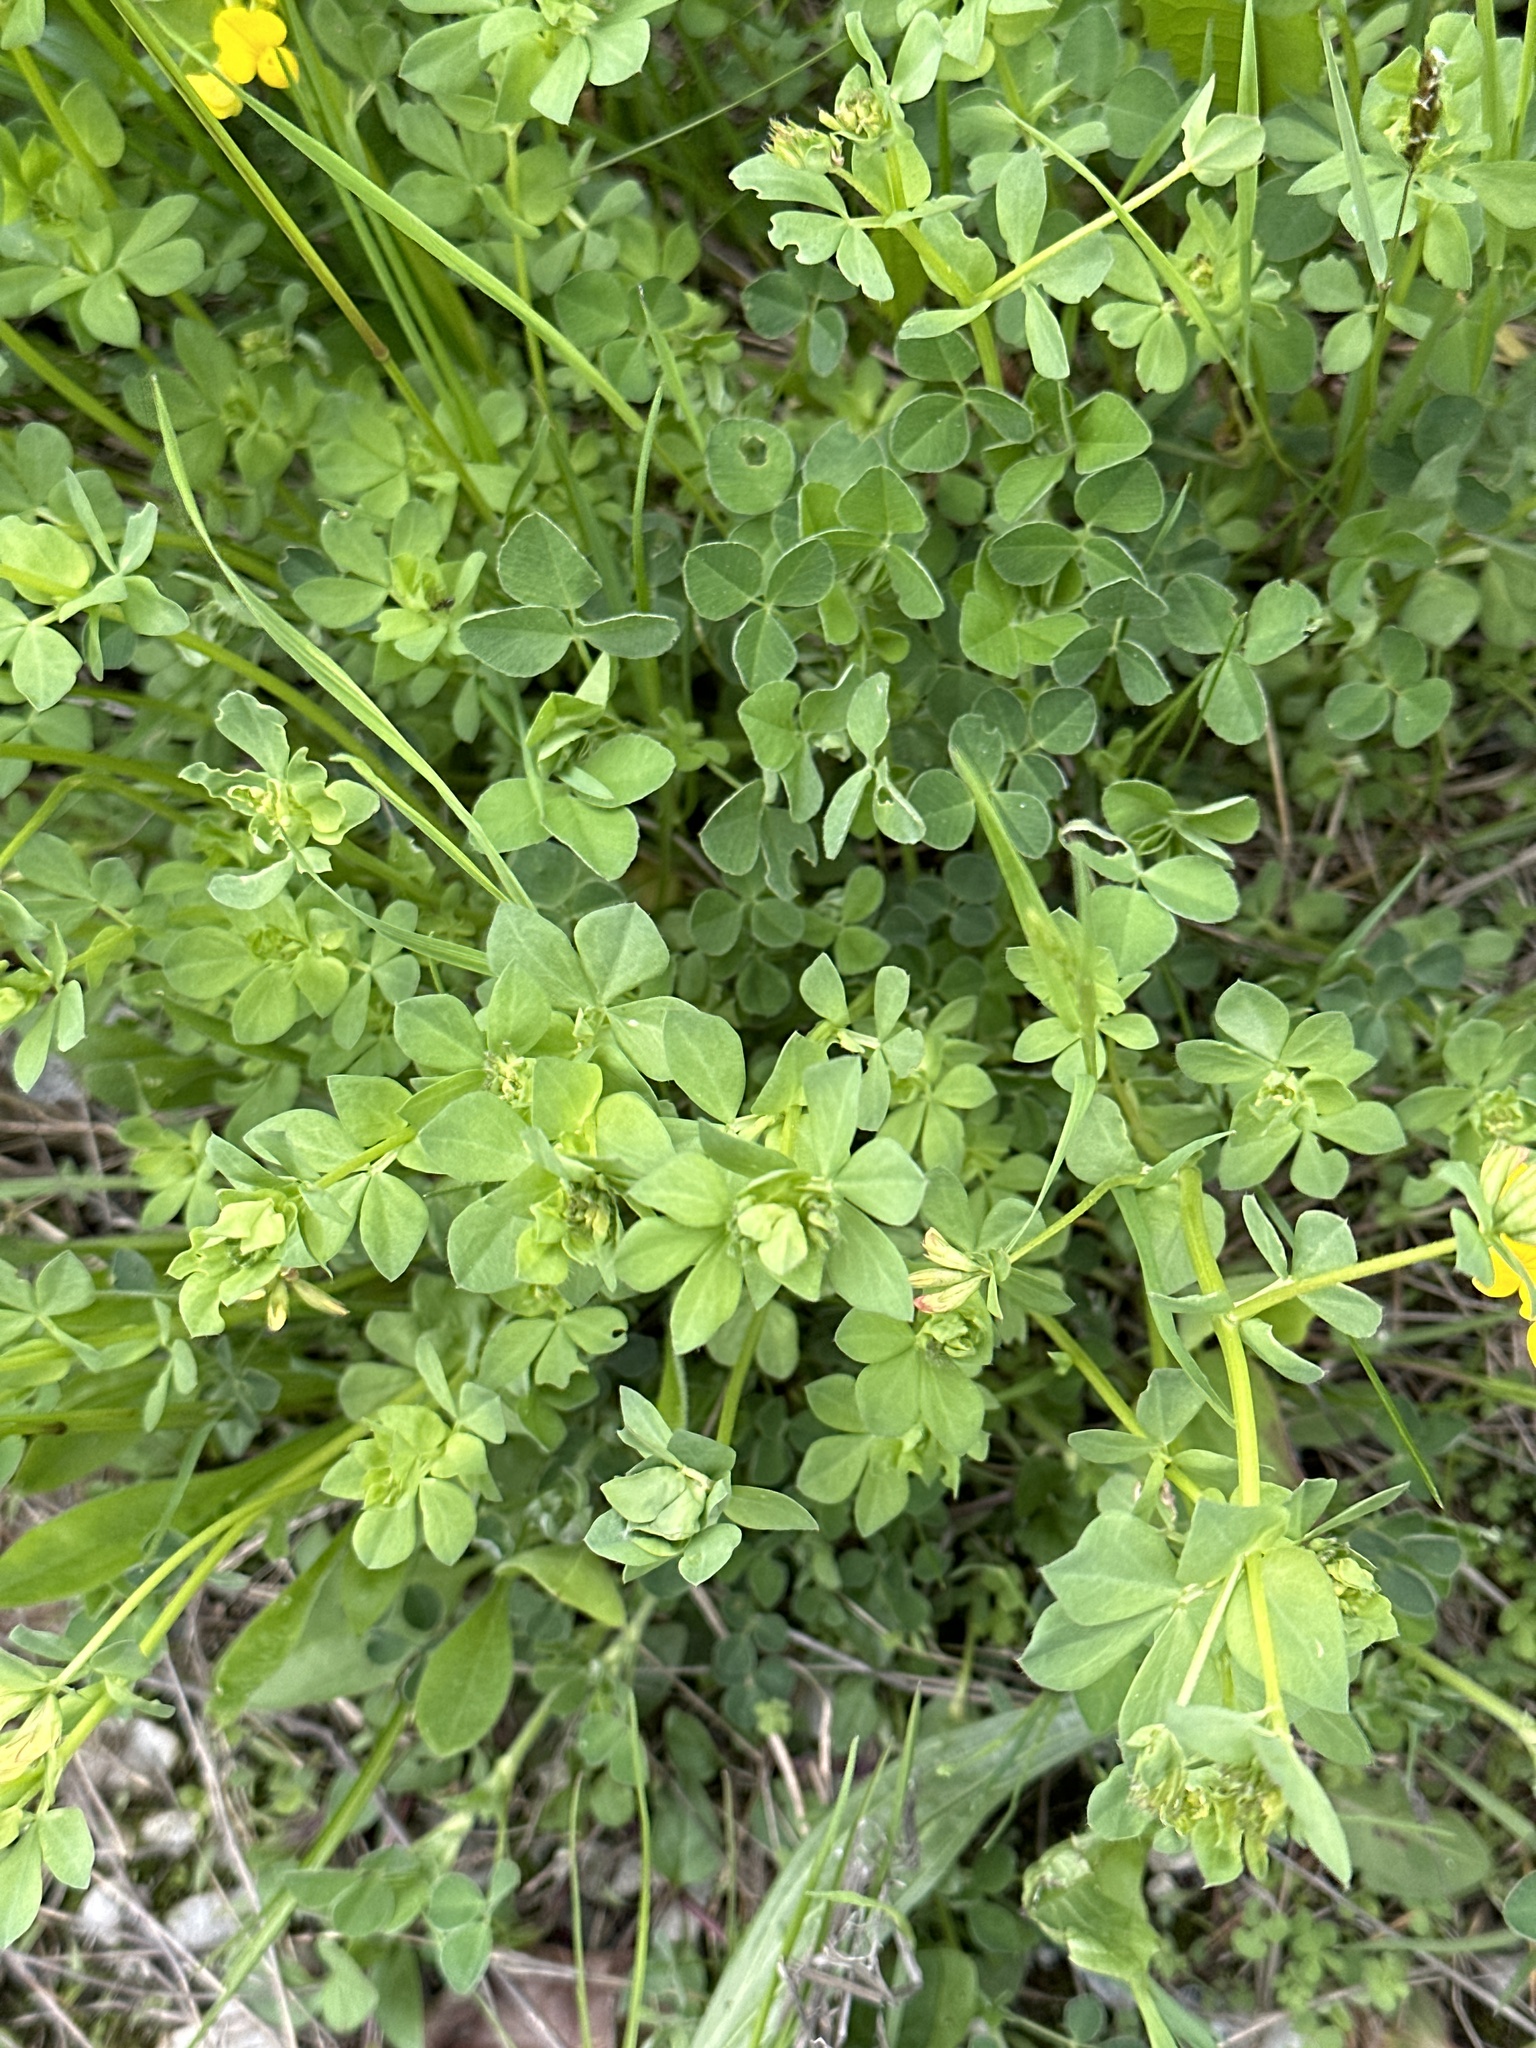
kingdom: Plantae
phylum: Tracheophyta
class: Magnoliopsida
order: Fabales
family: Fabaceae
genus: Lotus
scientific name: Lotus corniculatus
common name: Common bird's-foot-trefoil
